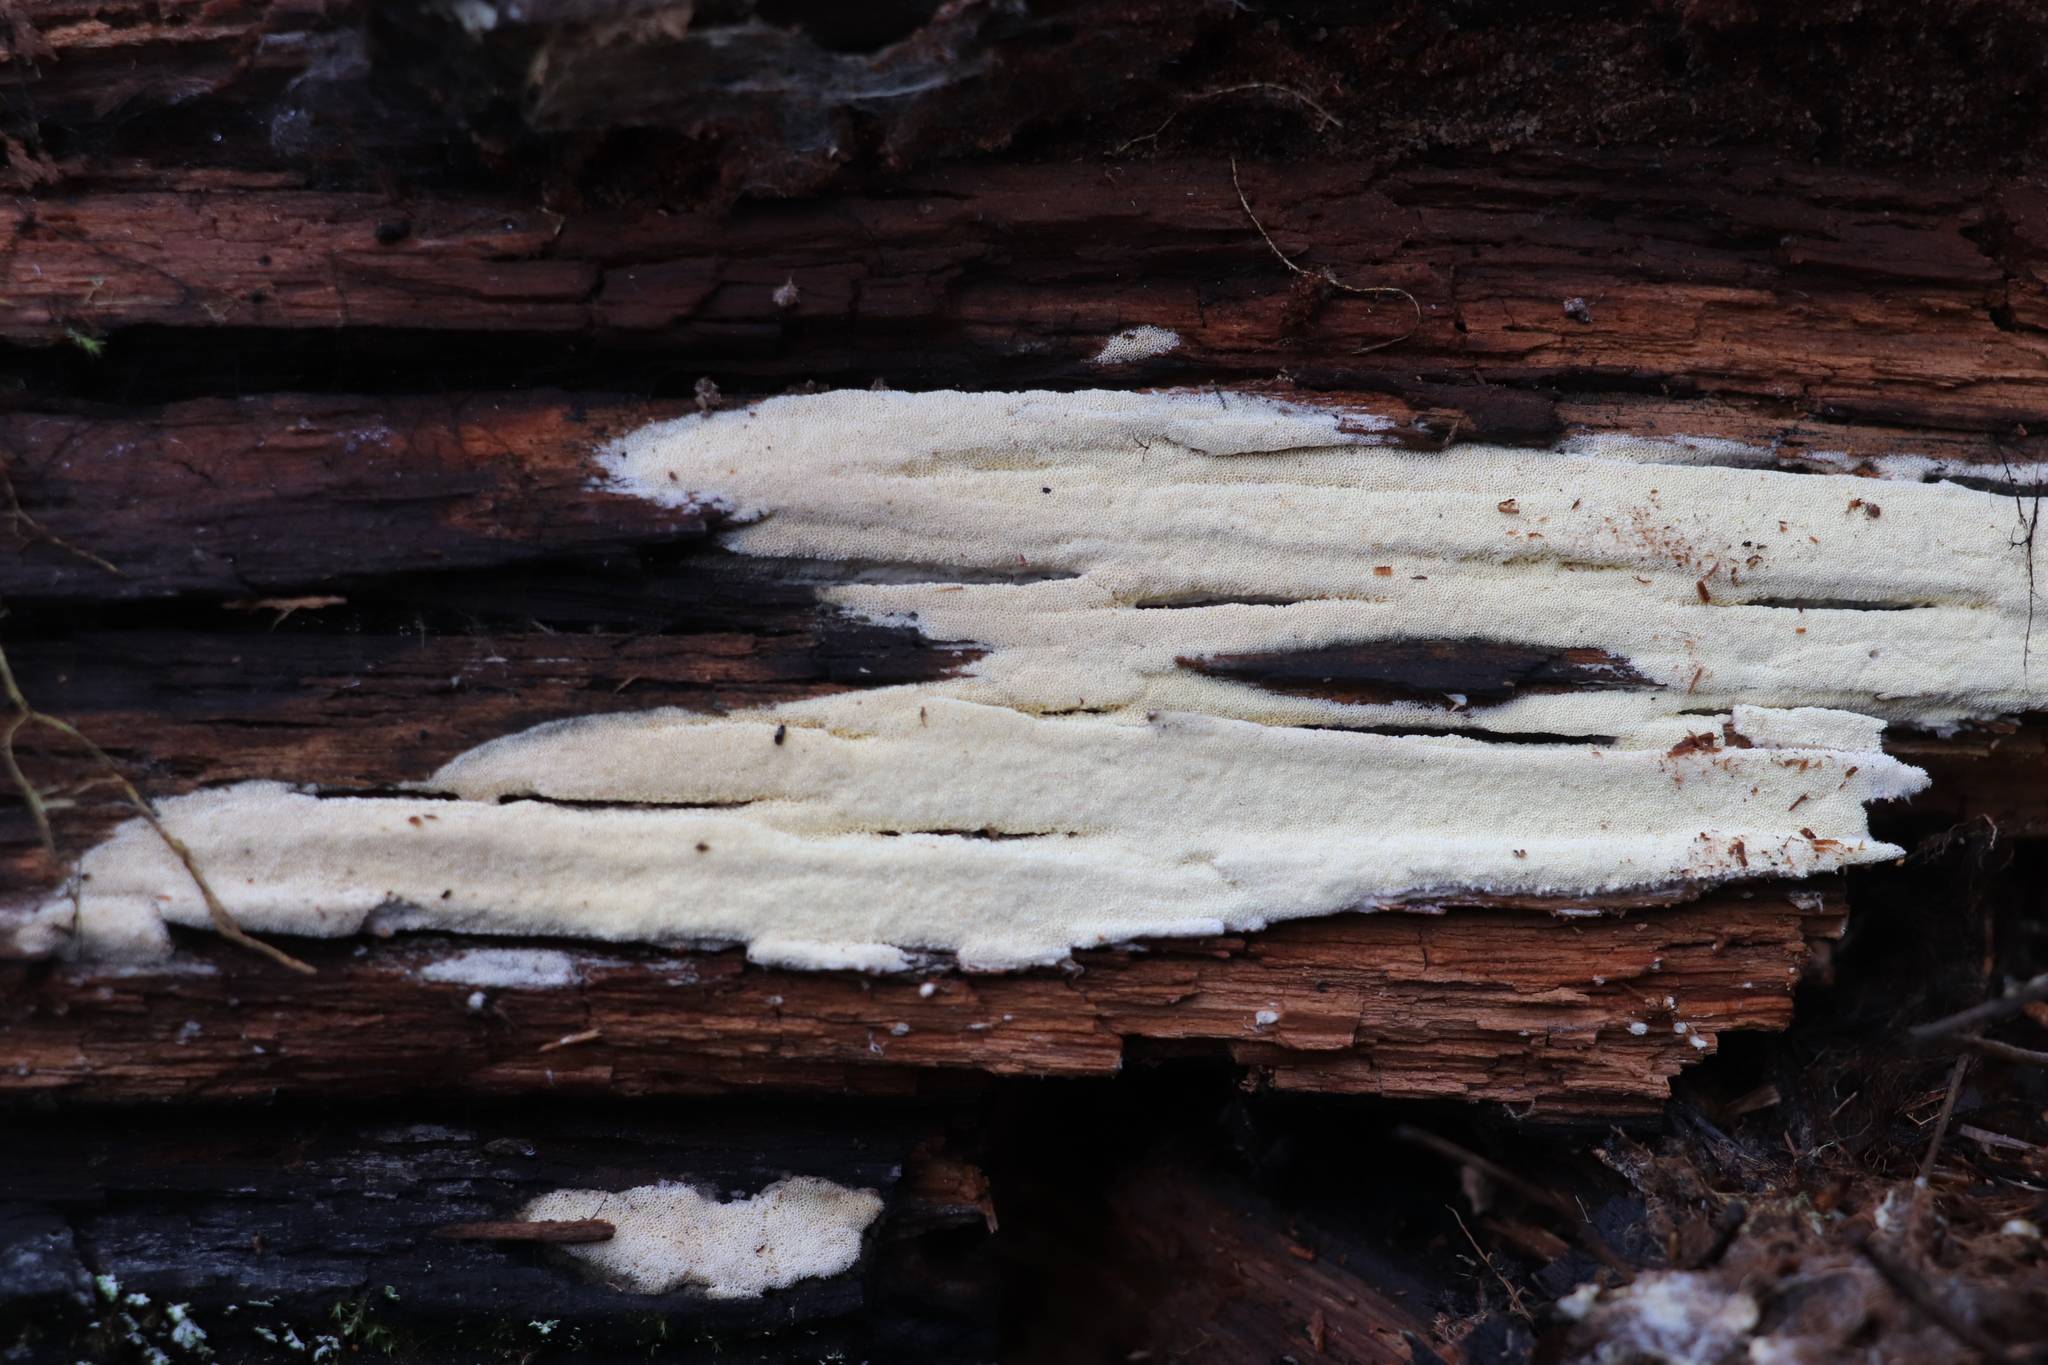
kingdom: Fungi
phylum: Basidiomycota
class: Agaricomycetes
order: Polyporales
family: Fomitopsidaceae
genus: Daedalea
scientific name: Daedalea xantha
